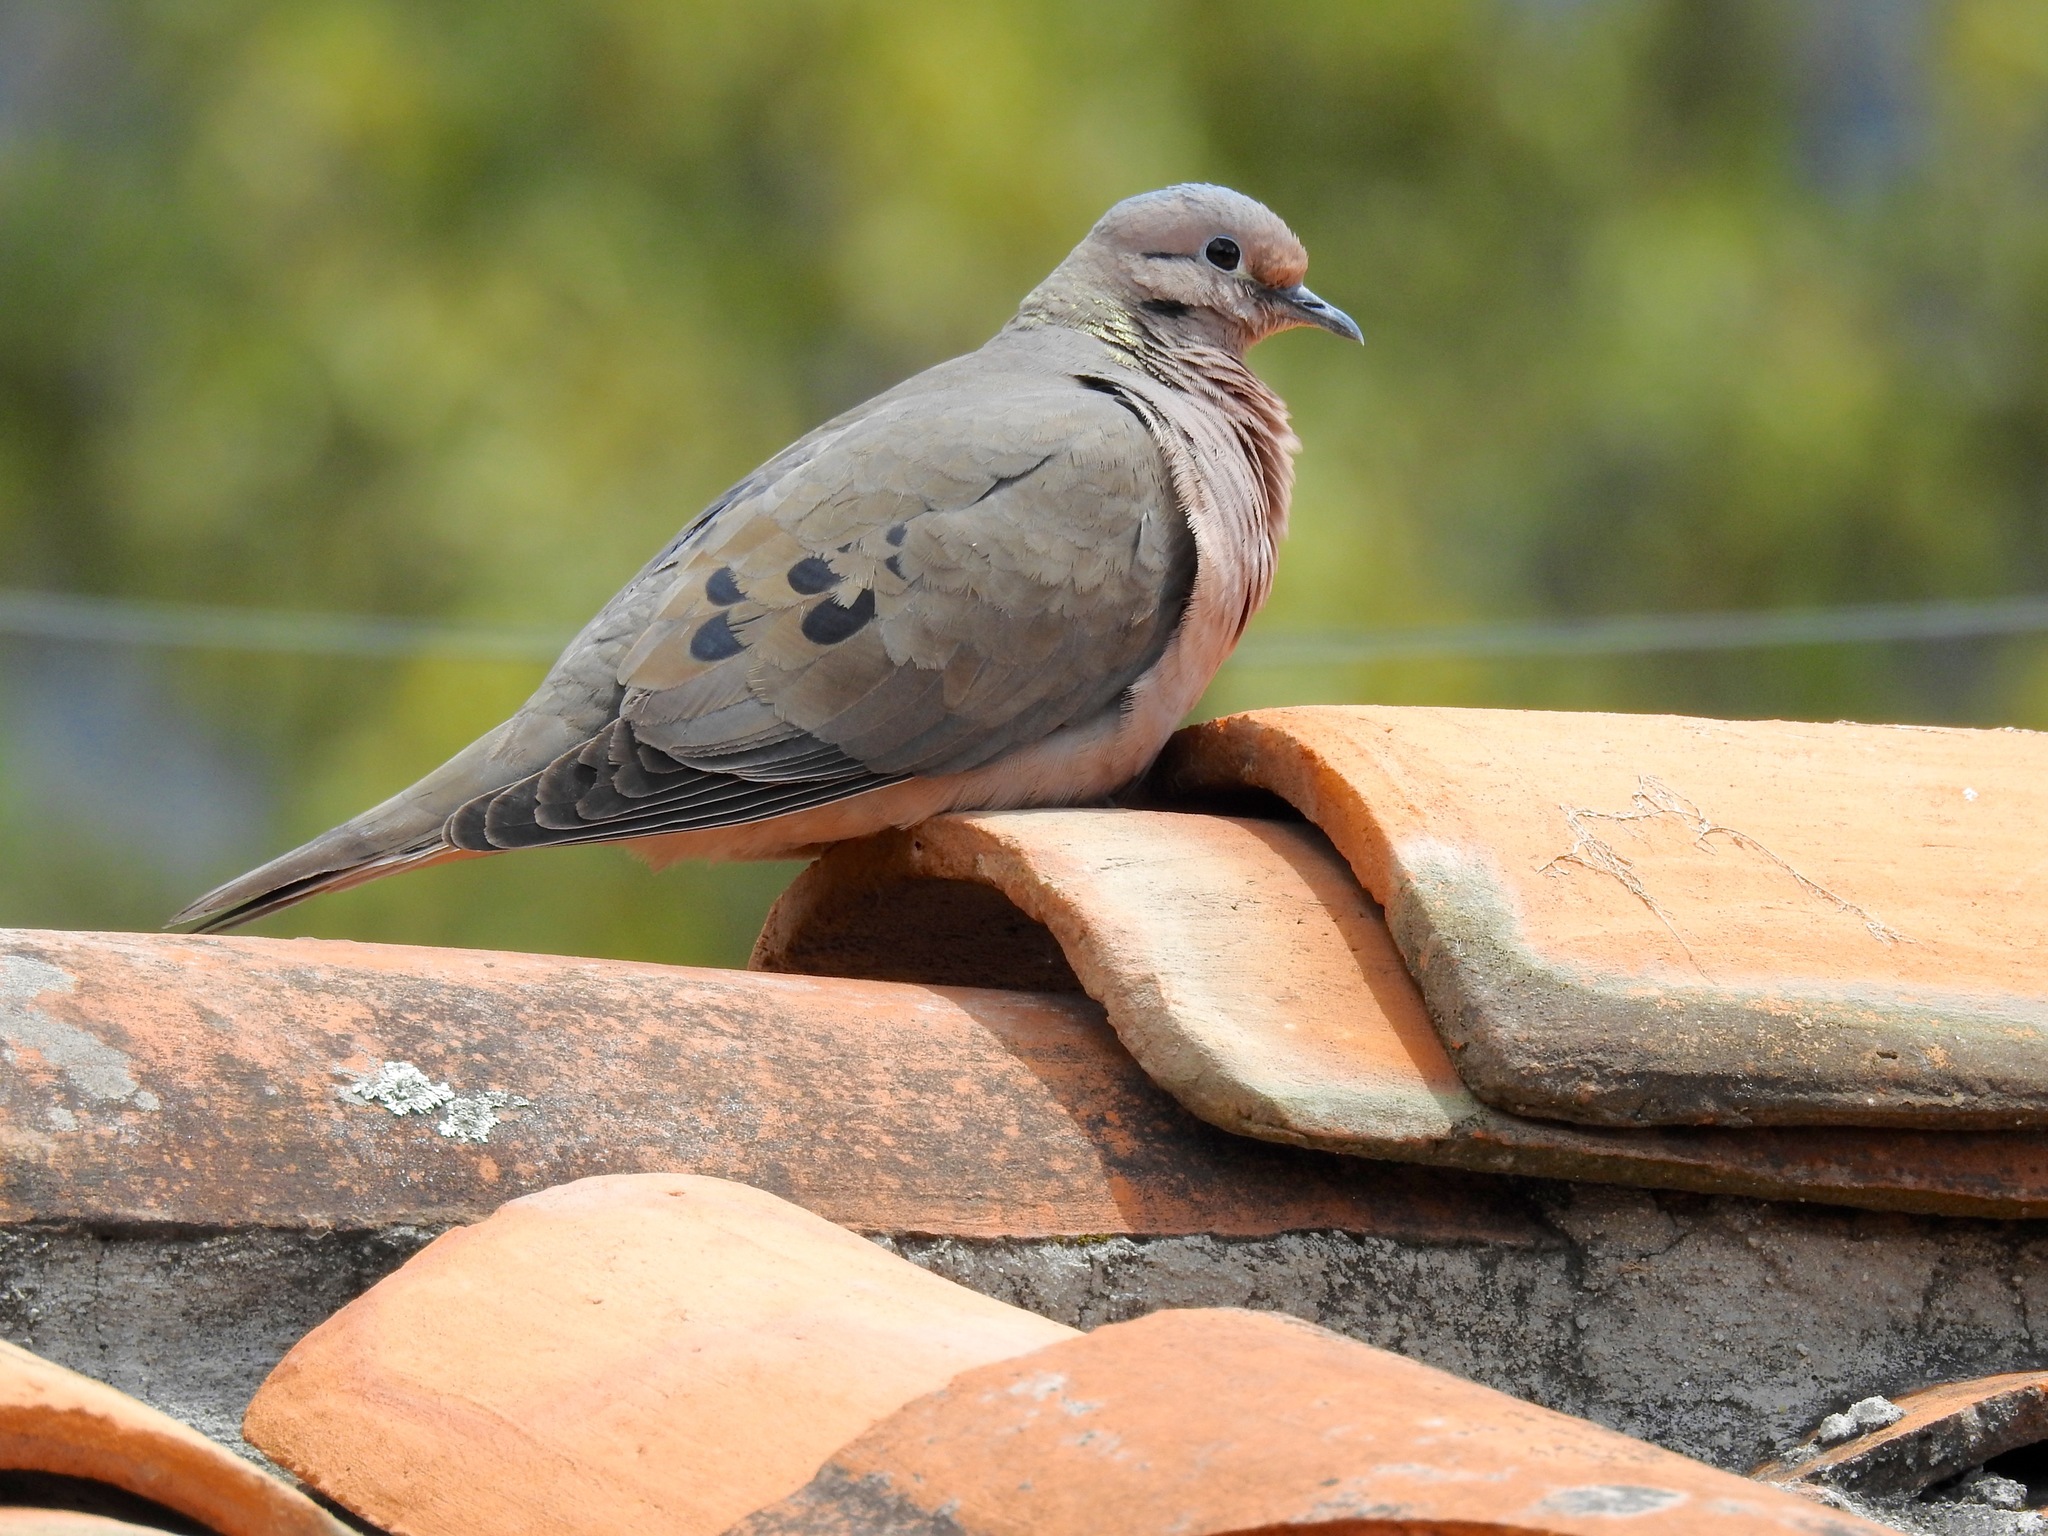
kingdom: Animalia
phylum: Chordata
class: Aves
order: Columbiformes
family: Columbidae
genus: Zenaida
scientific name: Zenaida auriculata
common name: Eared dove
